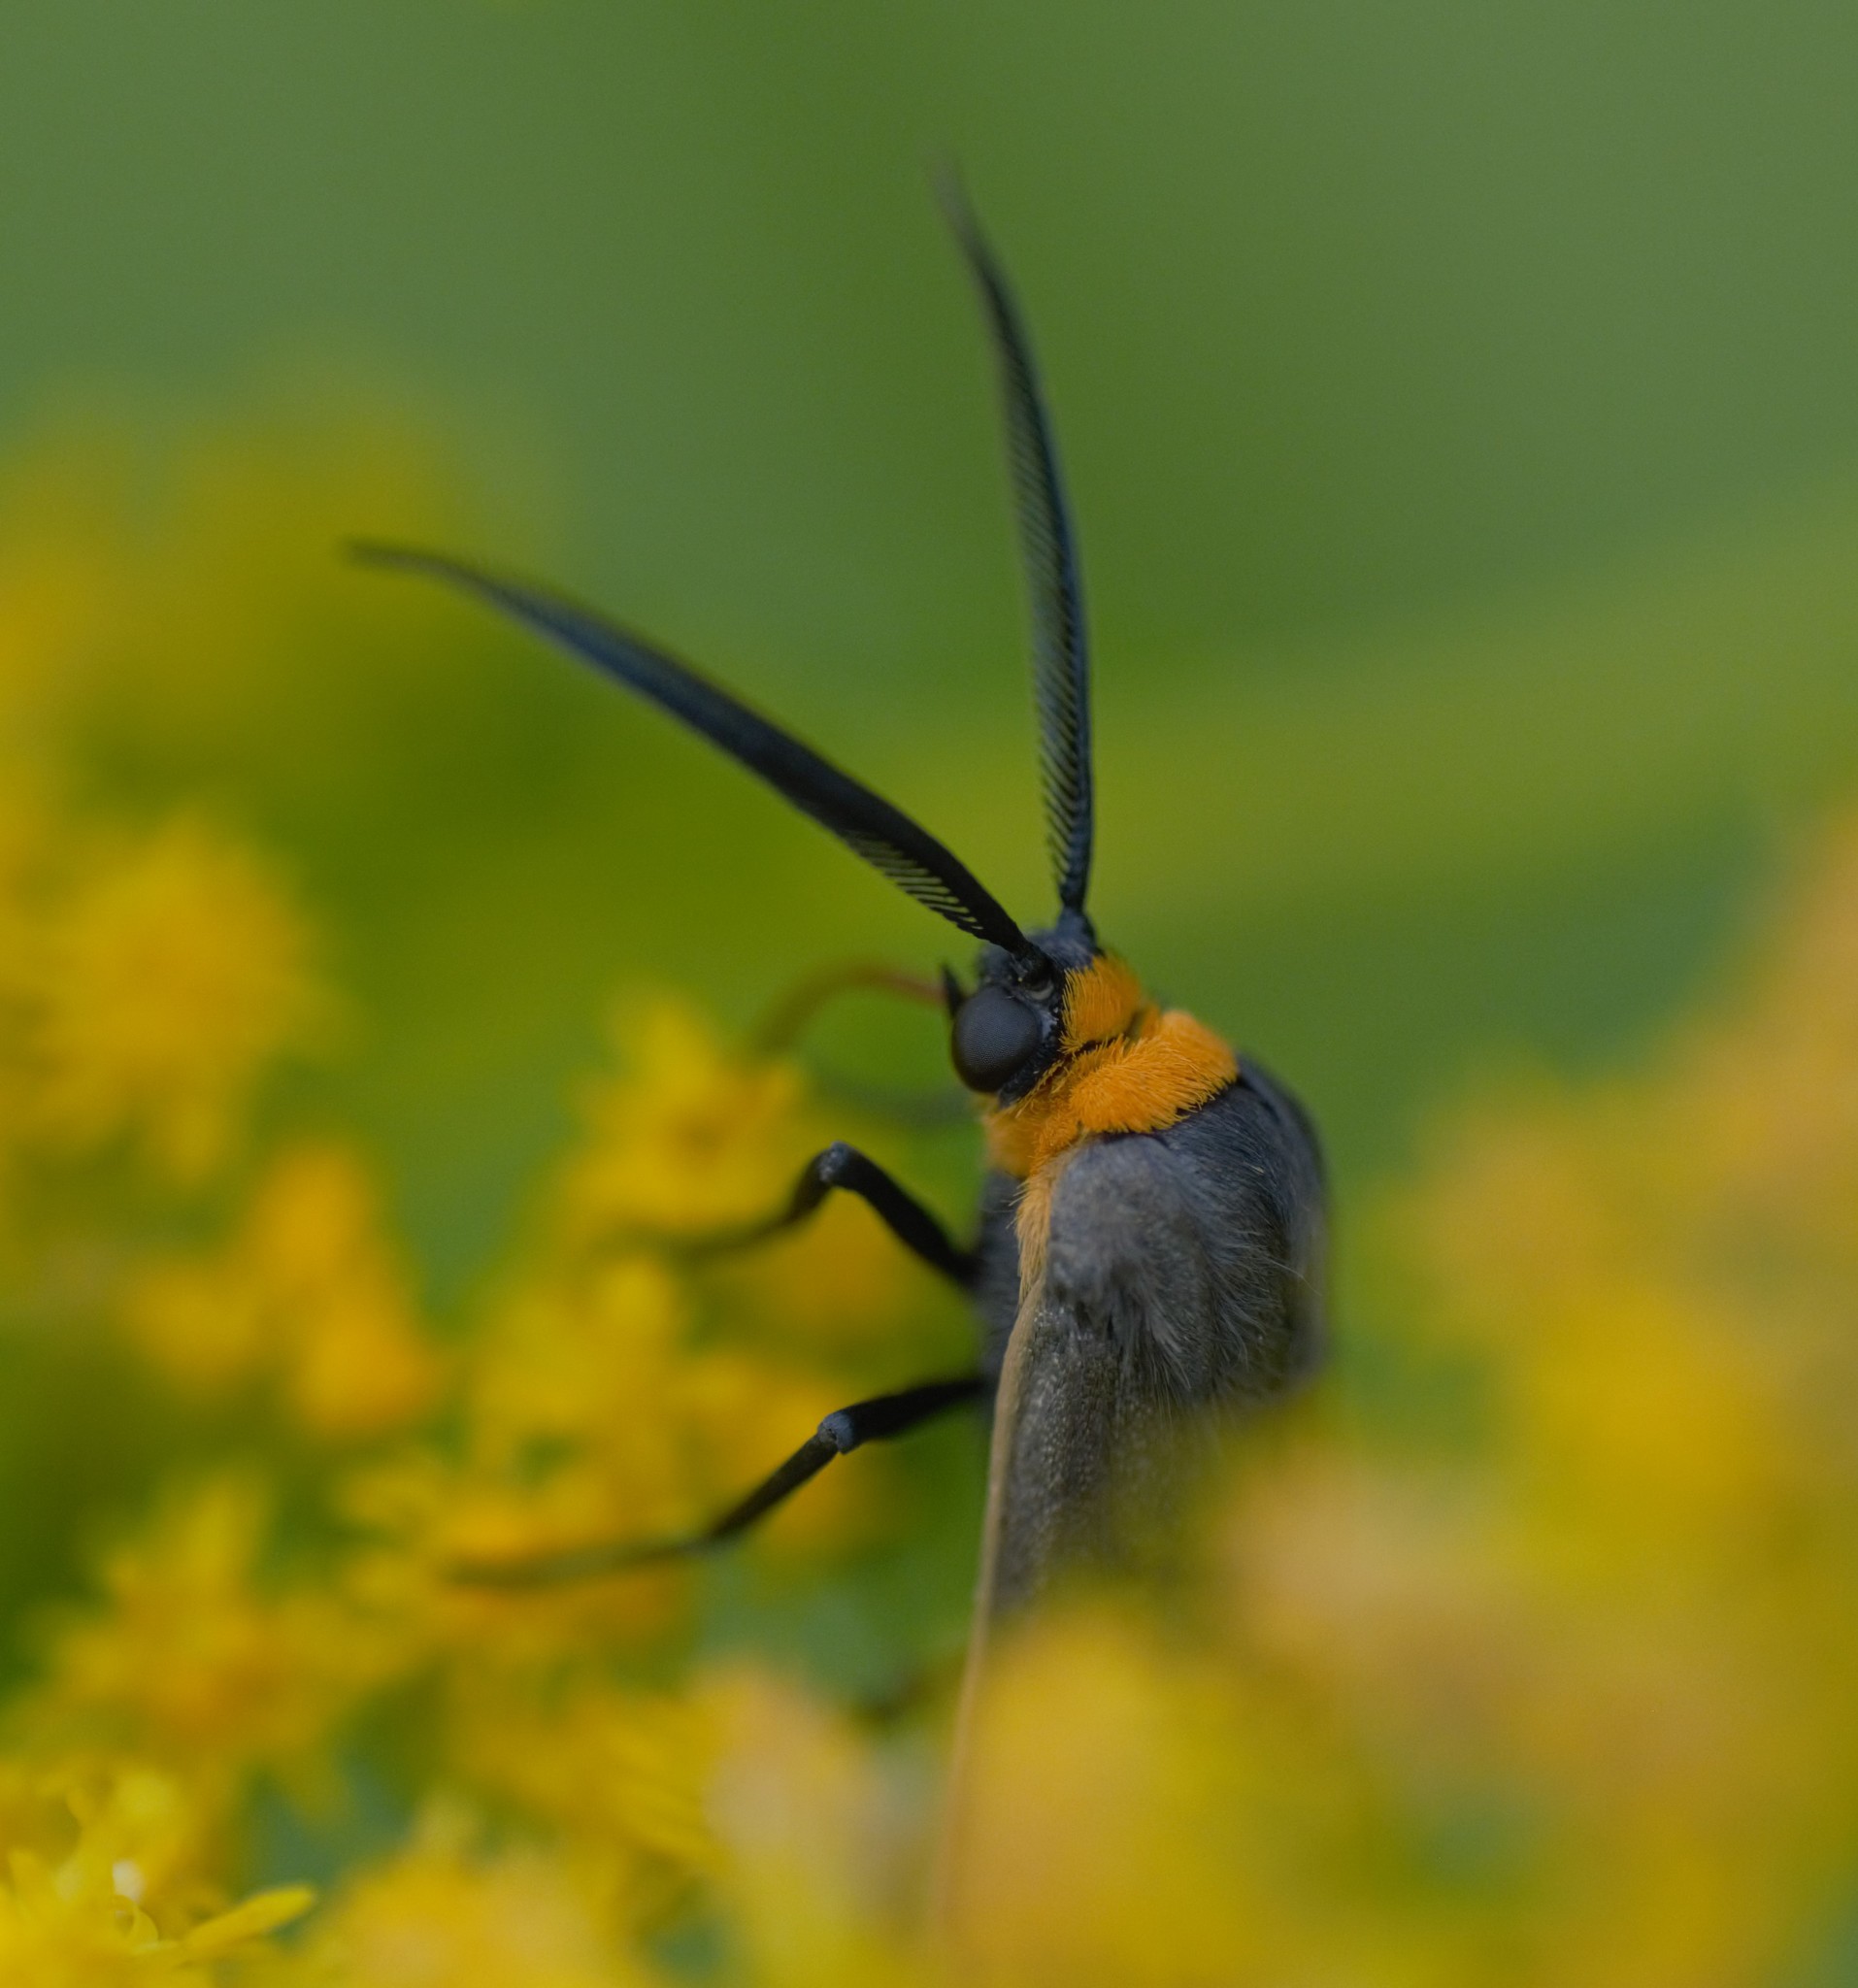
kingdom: Animalia
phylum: Arthropoda
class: Insecta
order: Lepidoptera
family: Erebidae
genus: Cisseps
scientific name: Cisseps fulvicollis
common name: Yellow-collared scape moth
